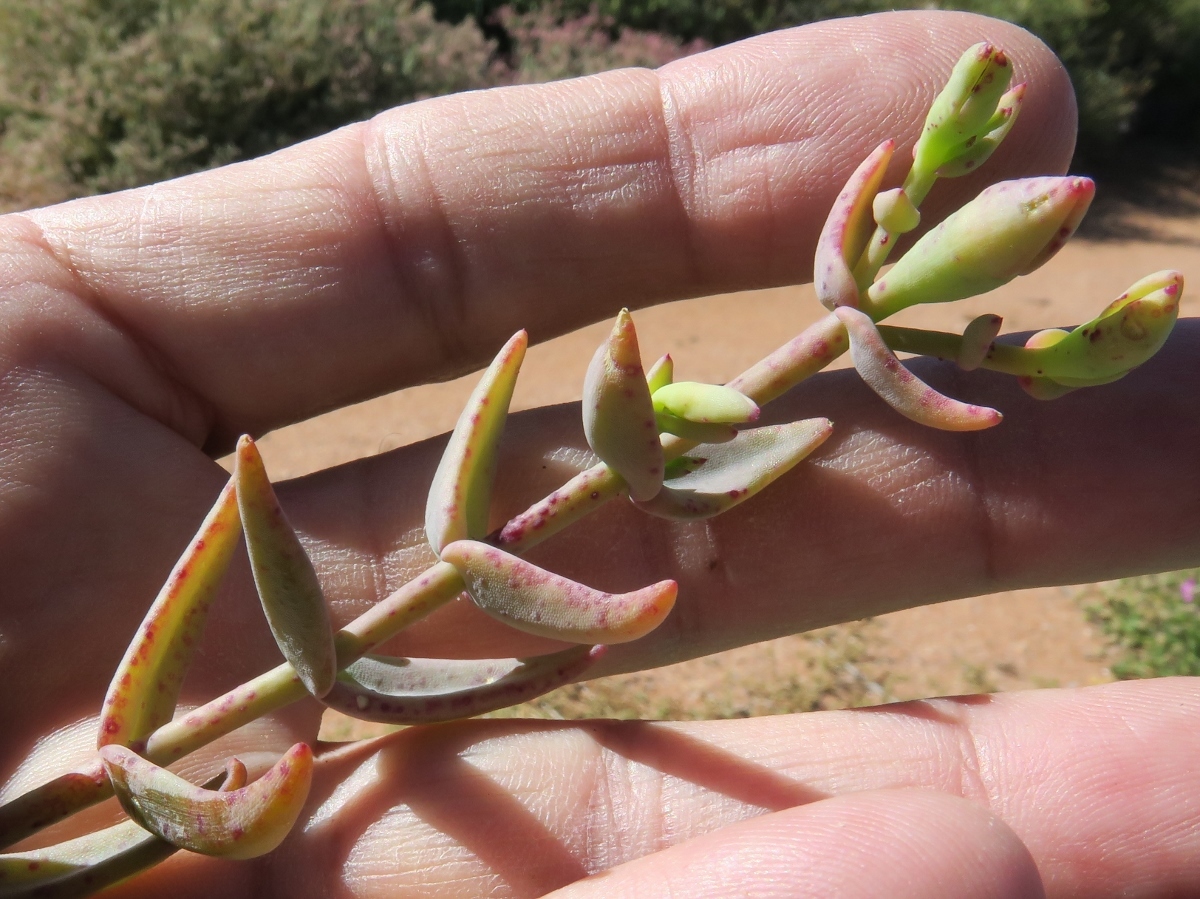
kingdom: Plantae
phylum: Tracheophyta
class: Magnoliopsida
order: Caryophyllales
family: Aizoaceae
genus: Mesembryanthemum
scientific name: Mesembryanthemum pallens
